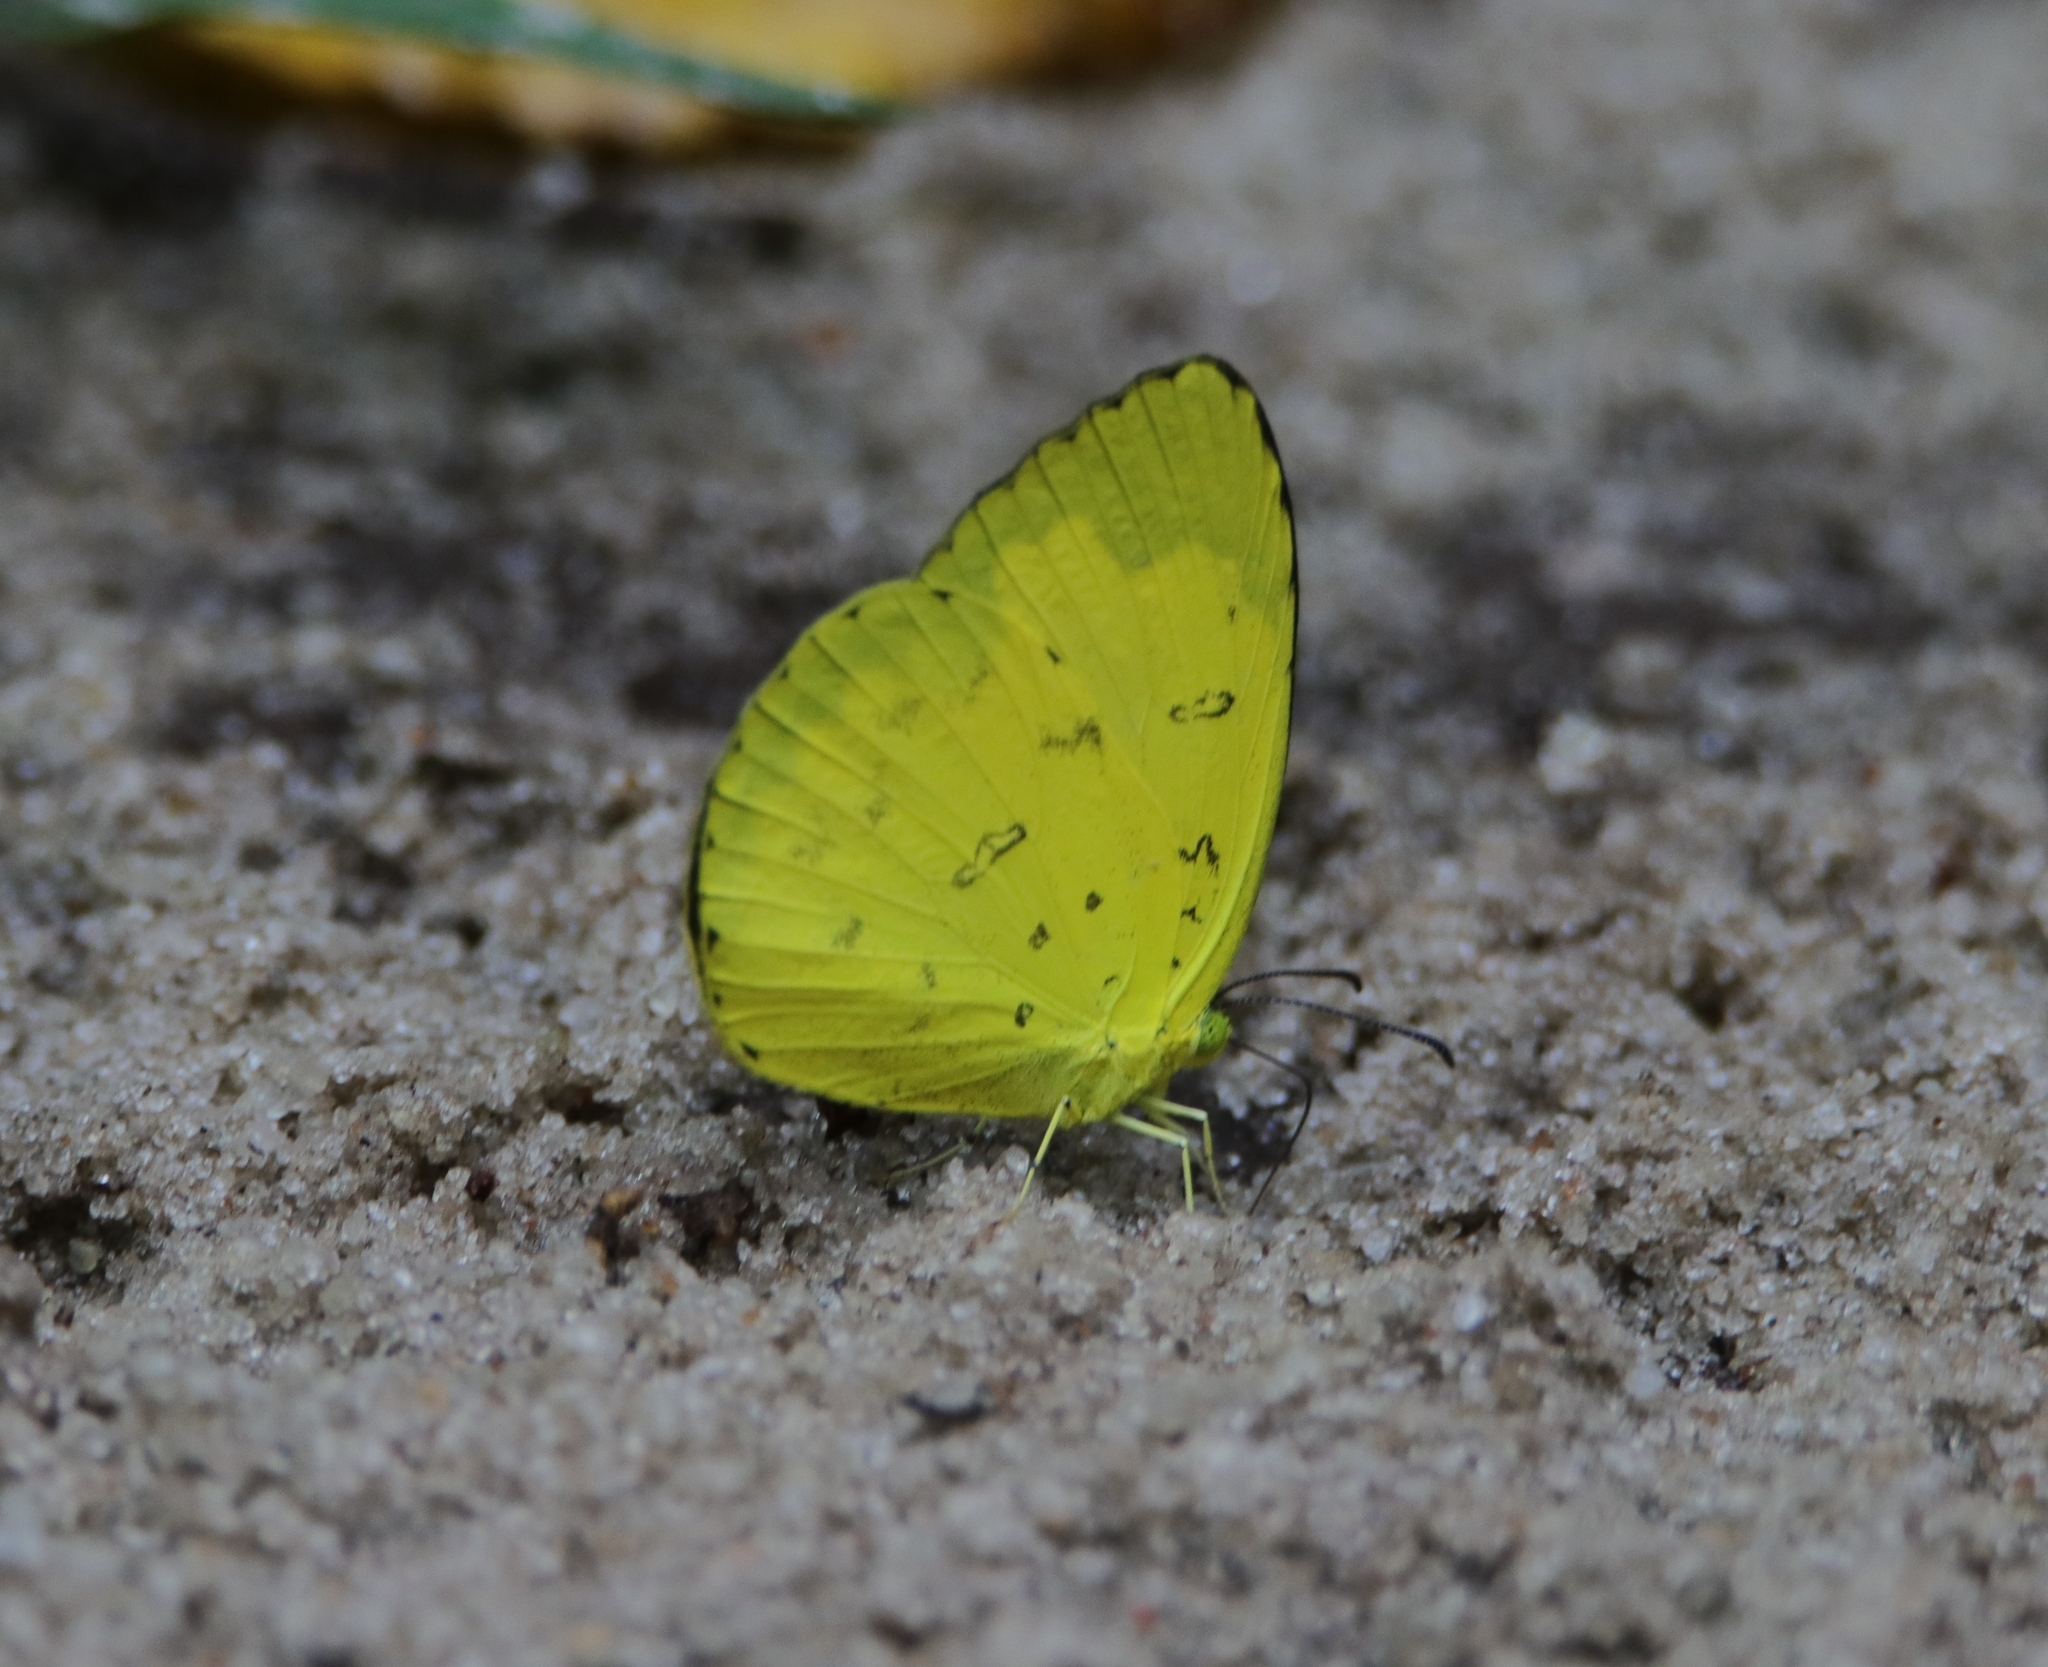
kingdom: Animalia
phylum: Arthropoda
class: Insecta
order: Lepidoptera
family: Pieridae
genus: Eurema
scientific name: Eurema blanda
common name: Three-spot grass yellow
